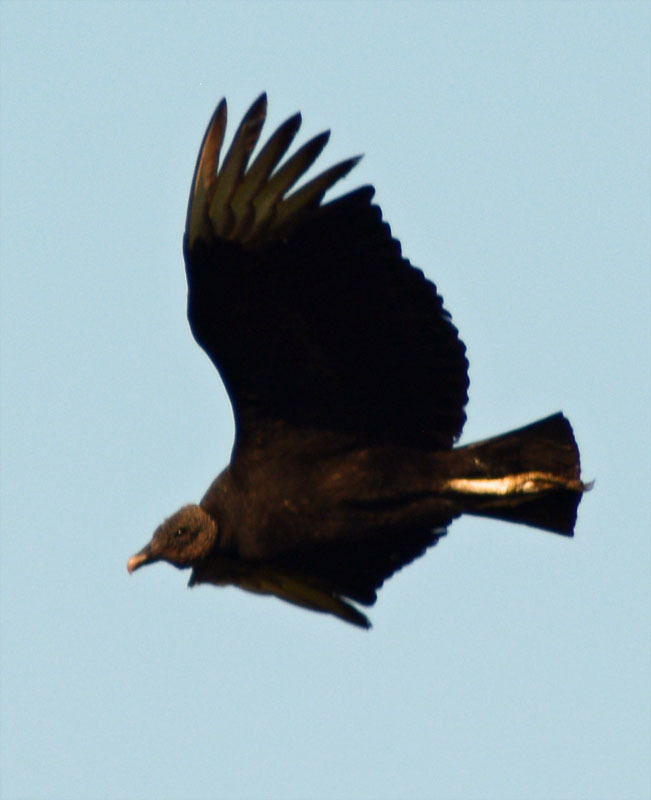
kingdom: Animalia
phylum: Chordata
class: Aves
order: Accipitriformes
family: Cathartidae
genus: Coragyps
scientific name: Coragyps atratus
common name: Black vulture
